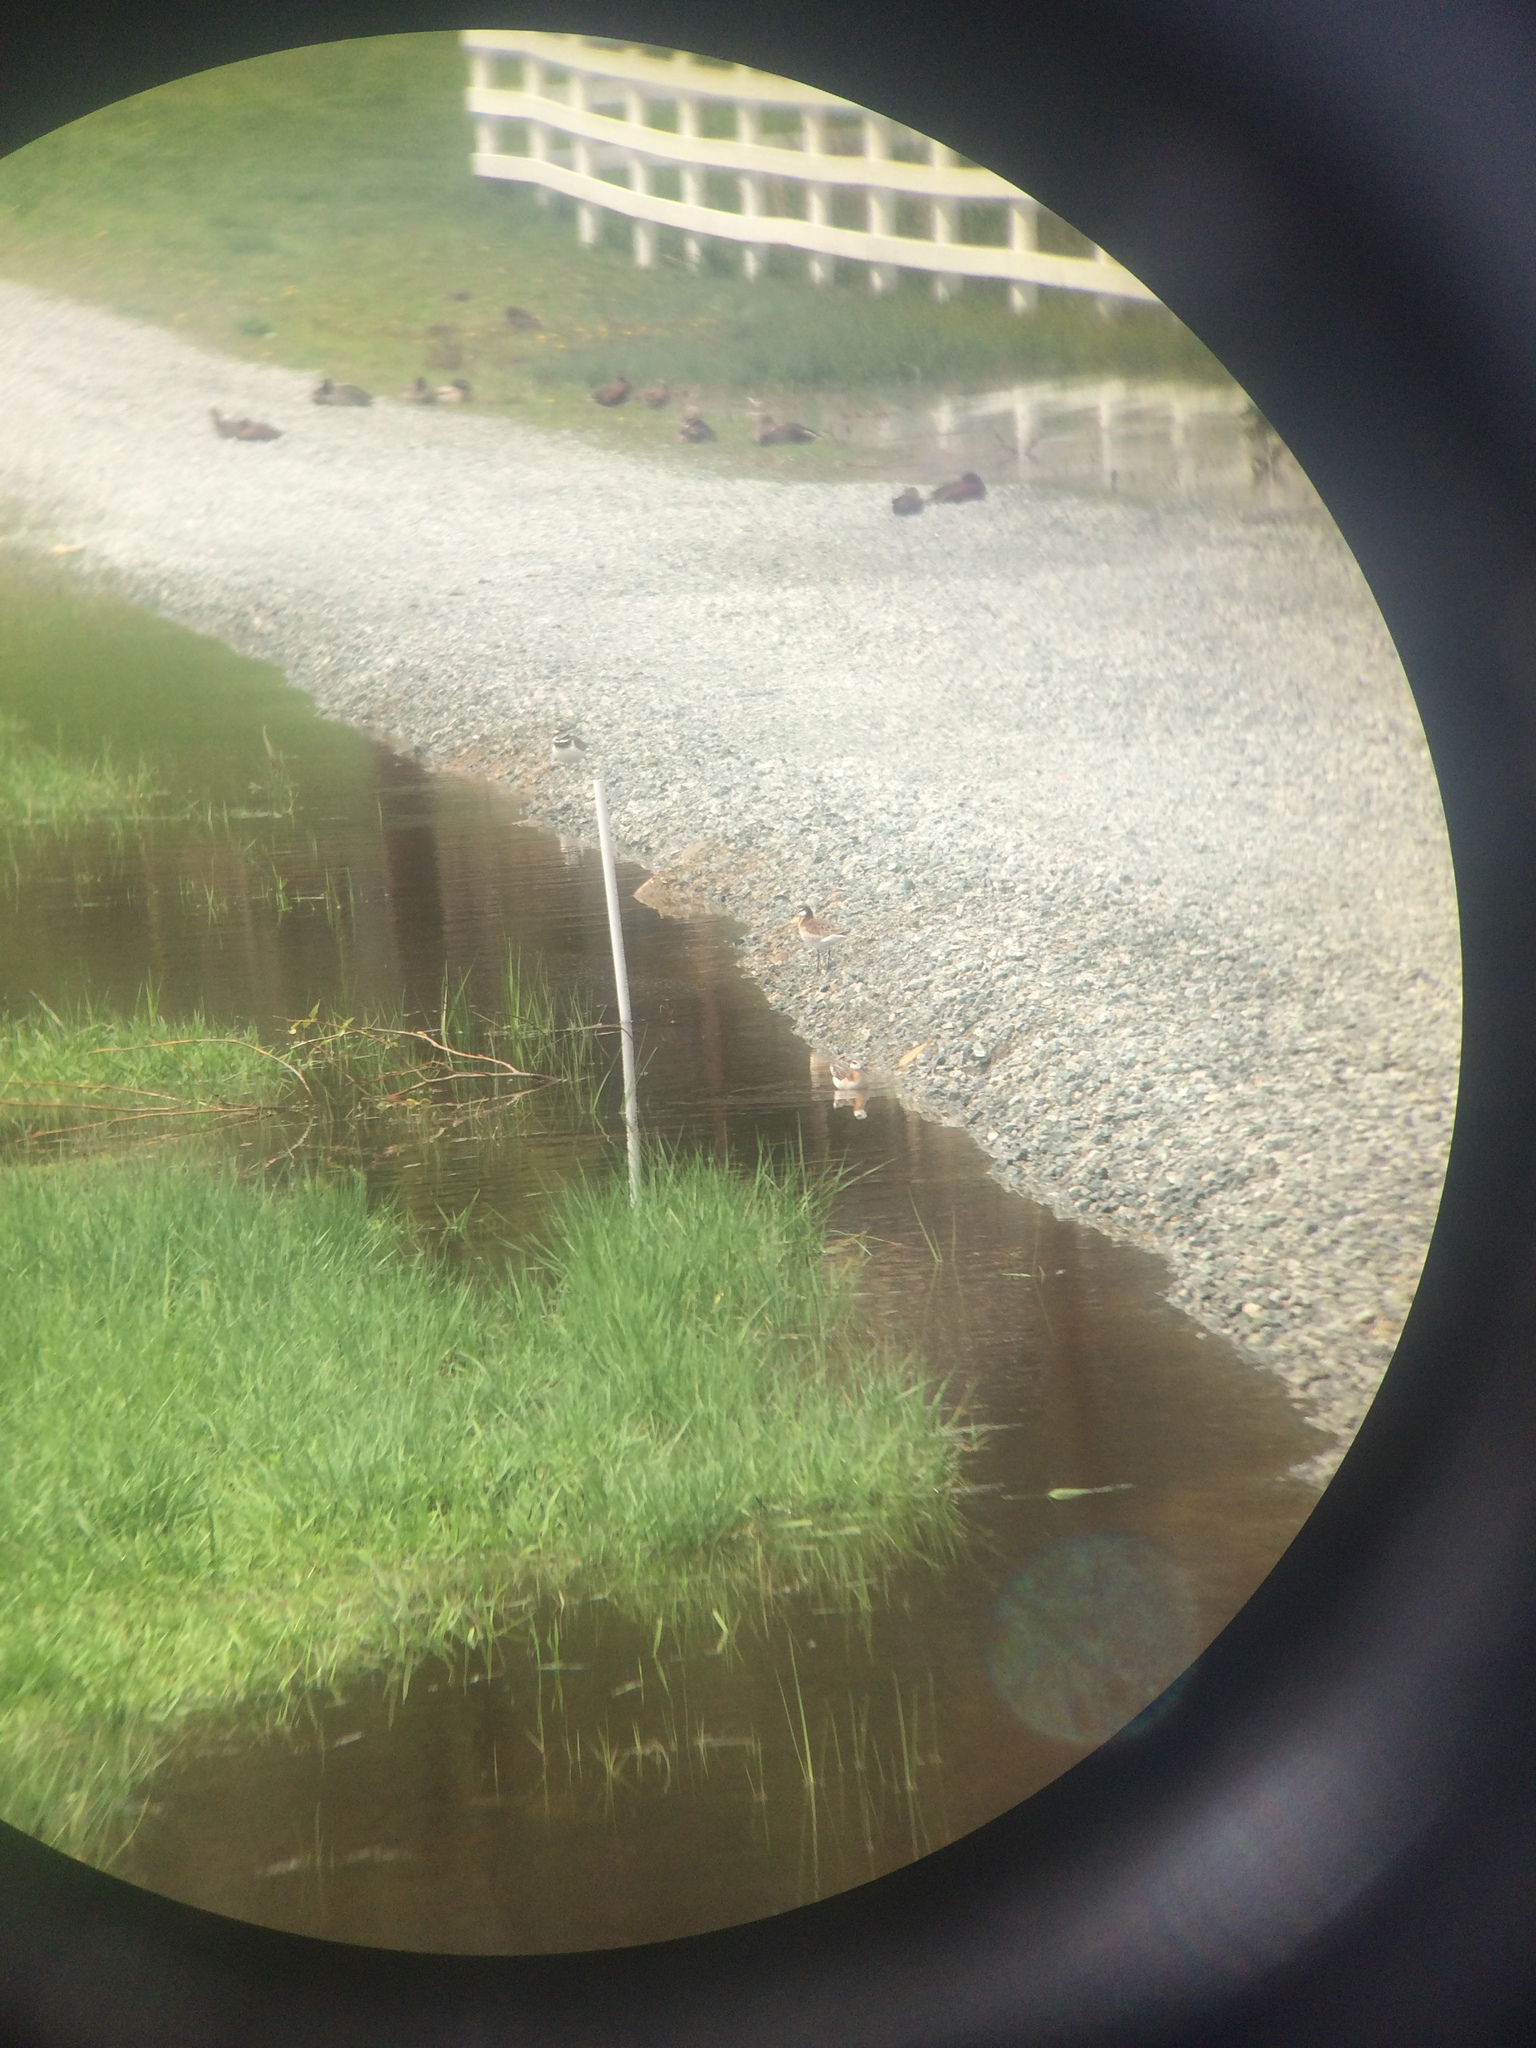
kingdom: Animalia
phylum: Chordata
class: Aves
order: Charadriiformes
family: Scolopacidae
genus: Phalaropus
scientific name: Phalaropus tricolor
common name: Wilson's phalarope
